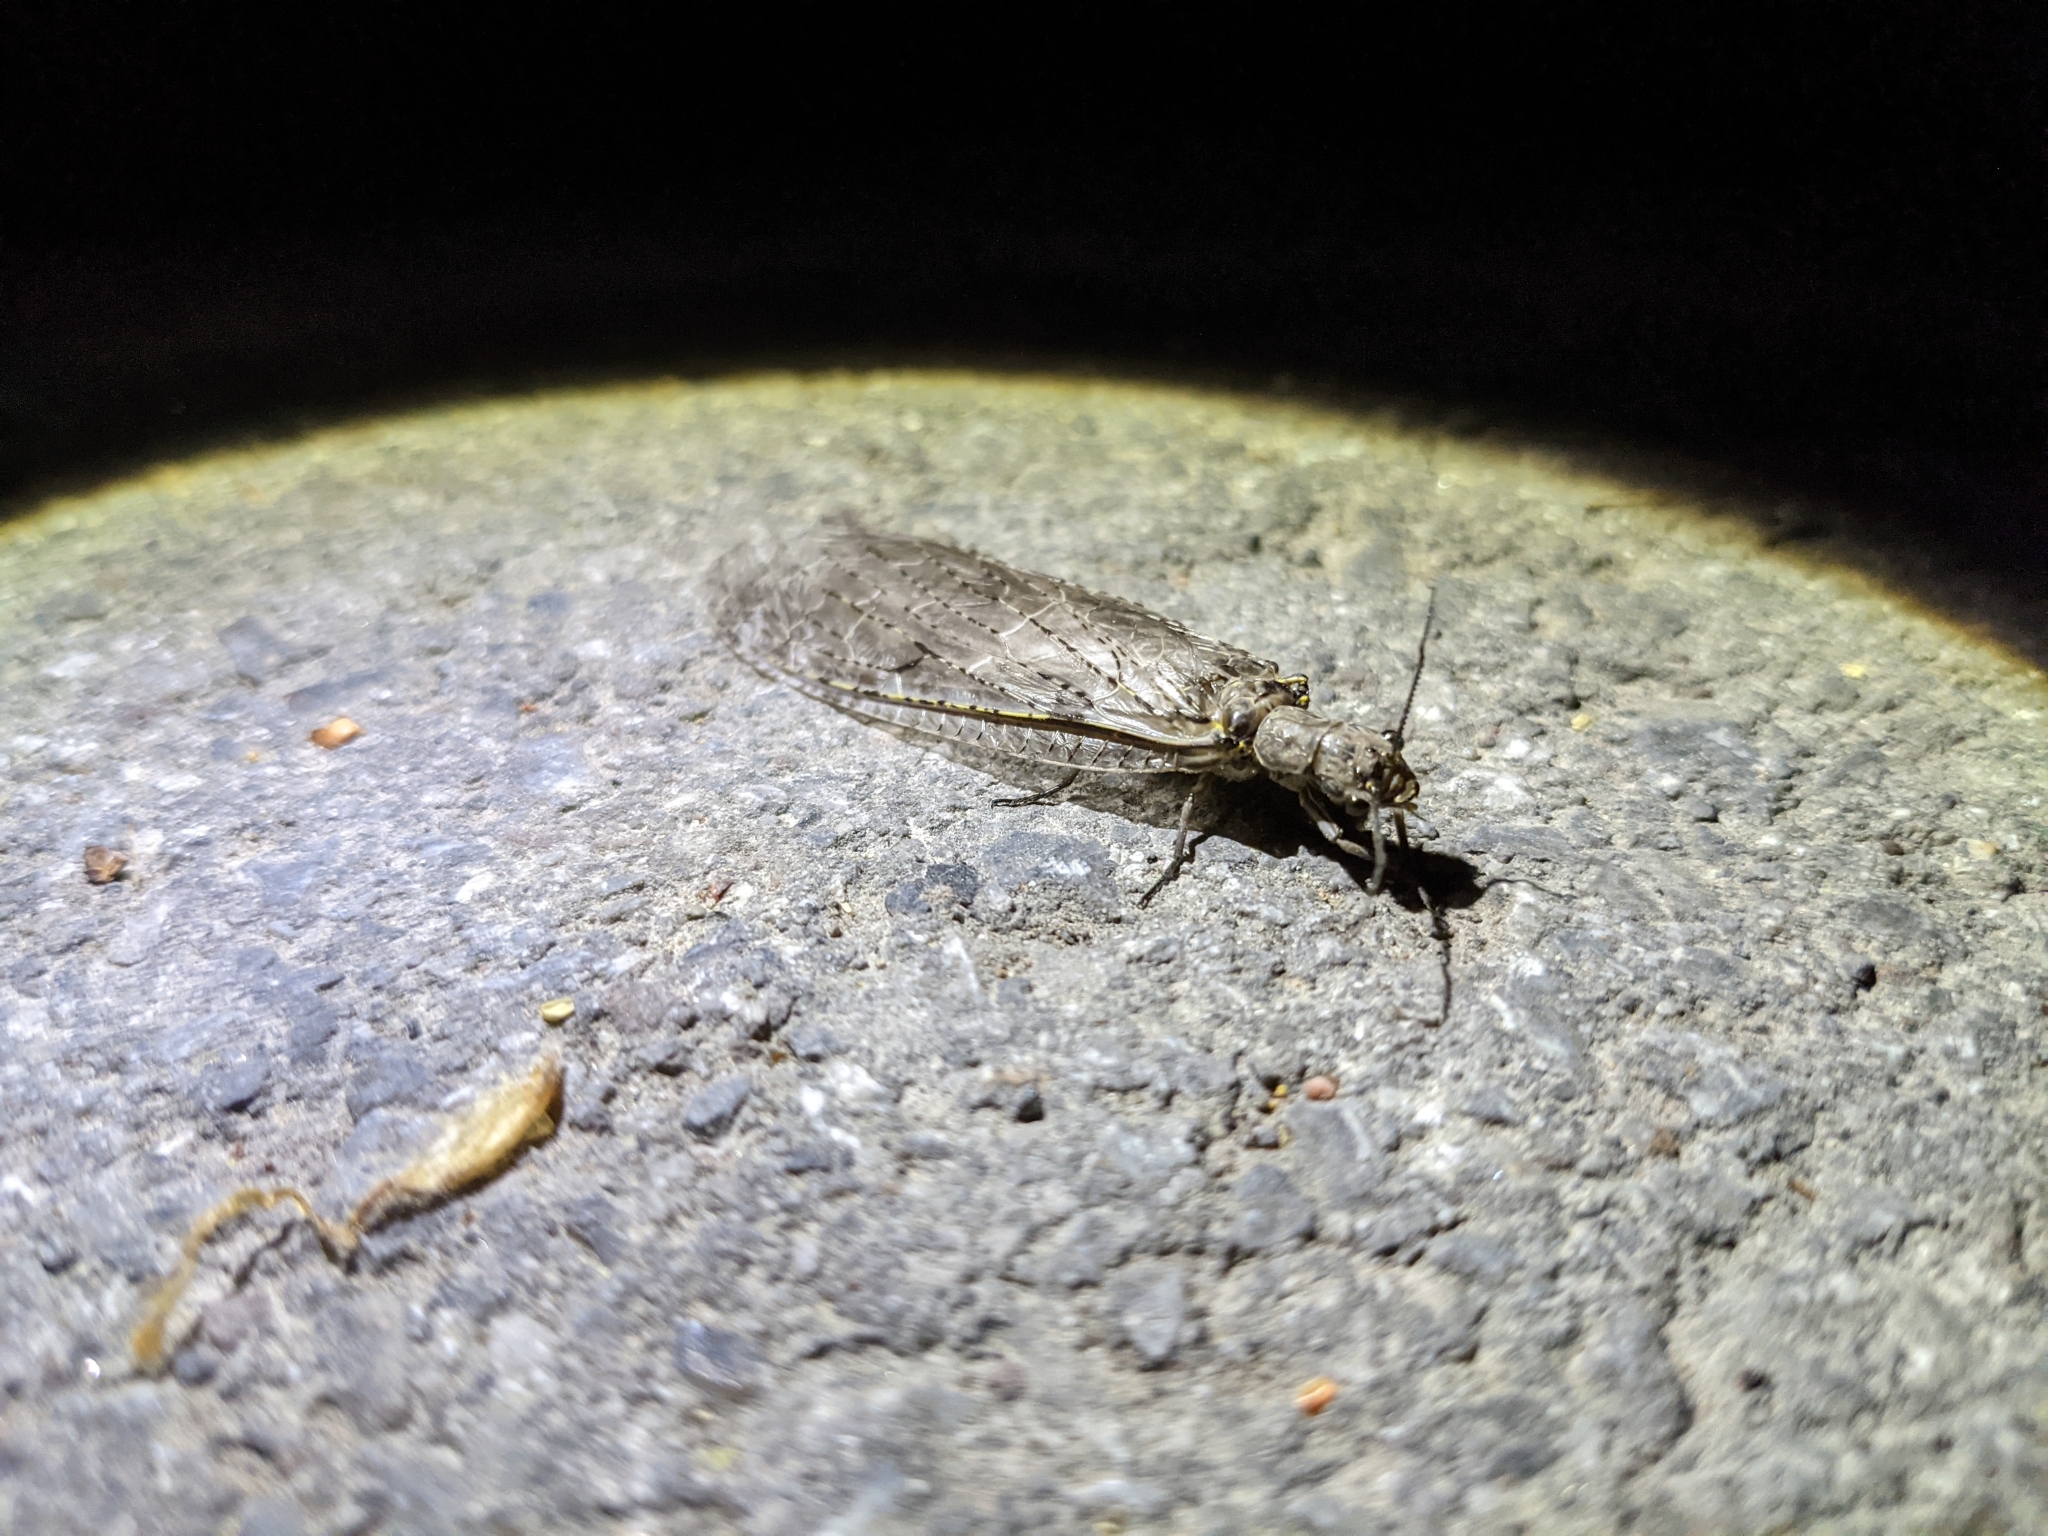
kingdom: Animalia
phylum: Arthropoda
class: Insecta
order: Megaloptera
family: Corydalidae
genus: Chauliodes
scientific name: Chauliodes rastricornis
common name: Spring fishfly
